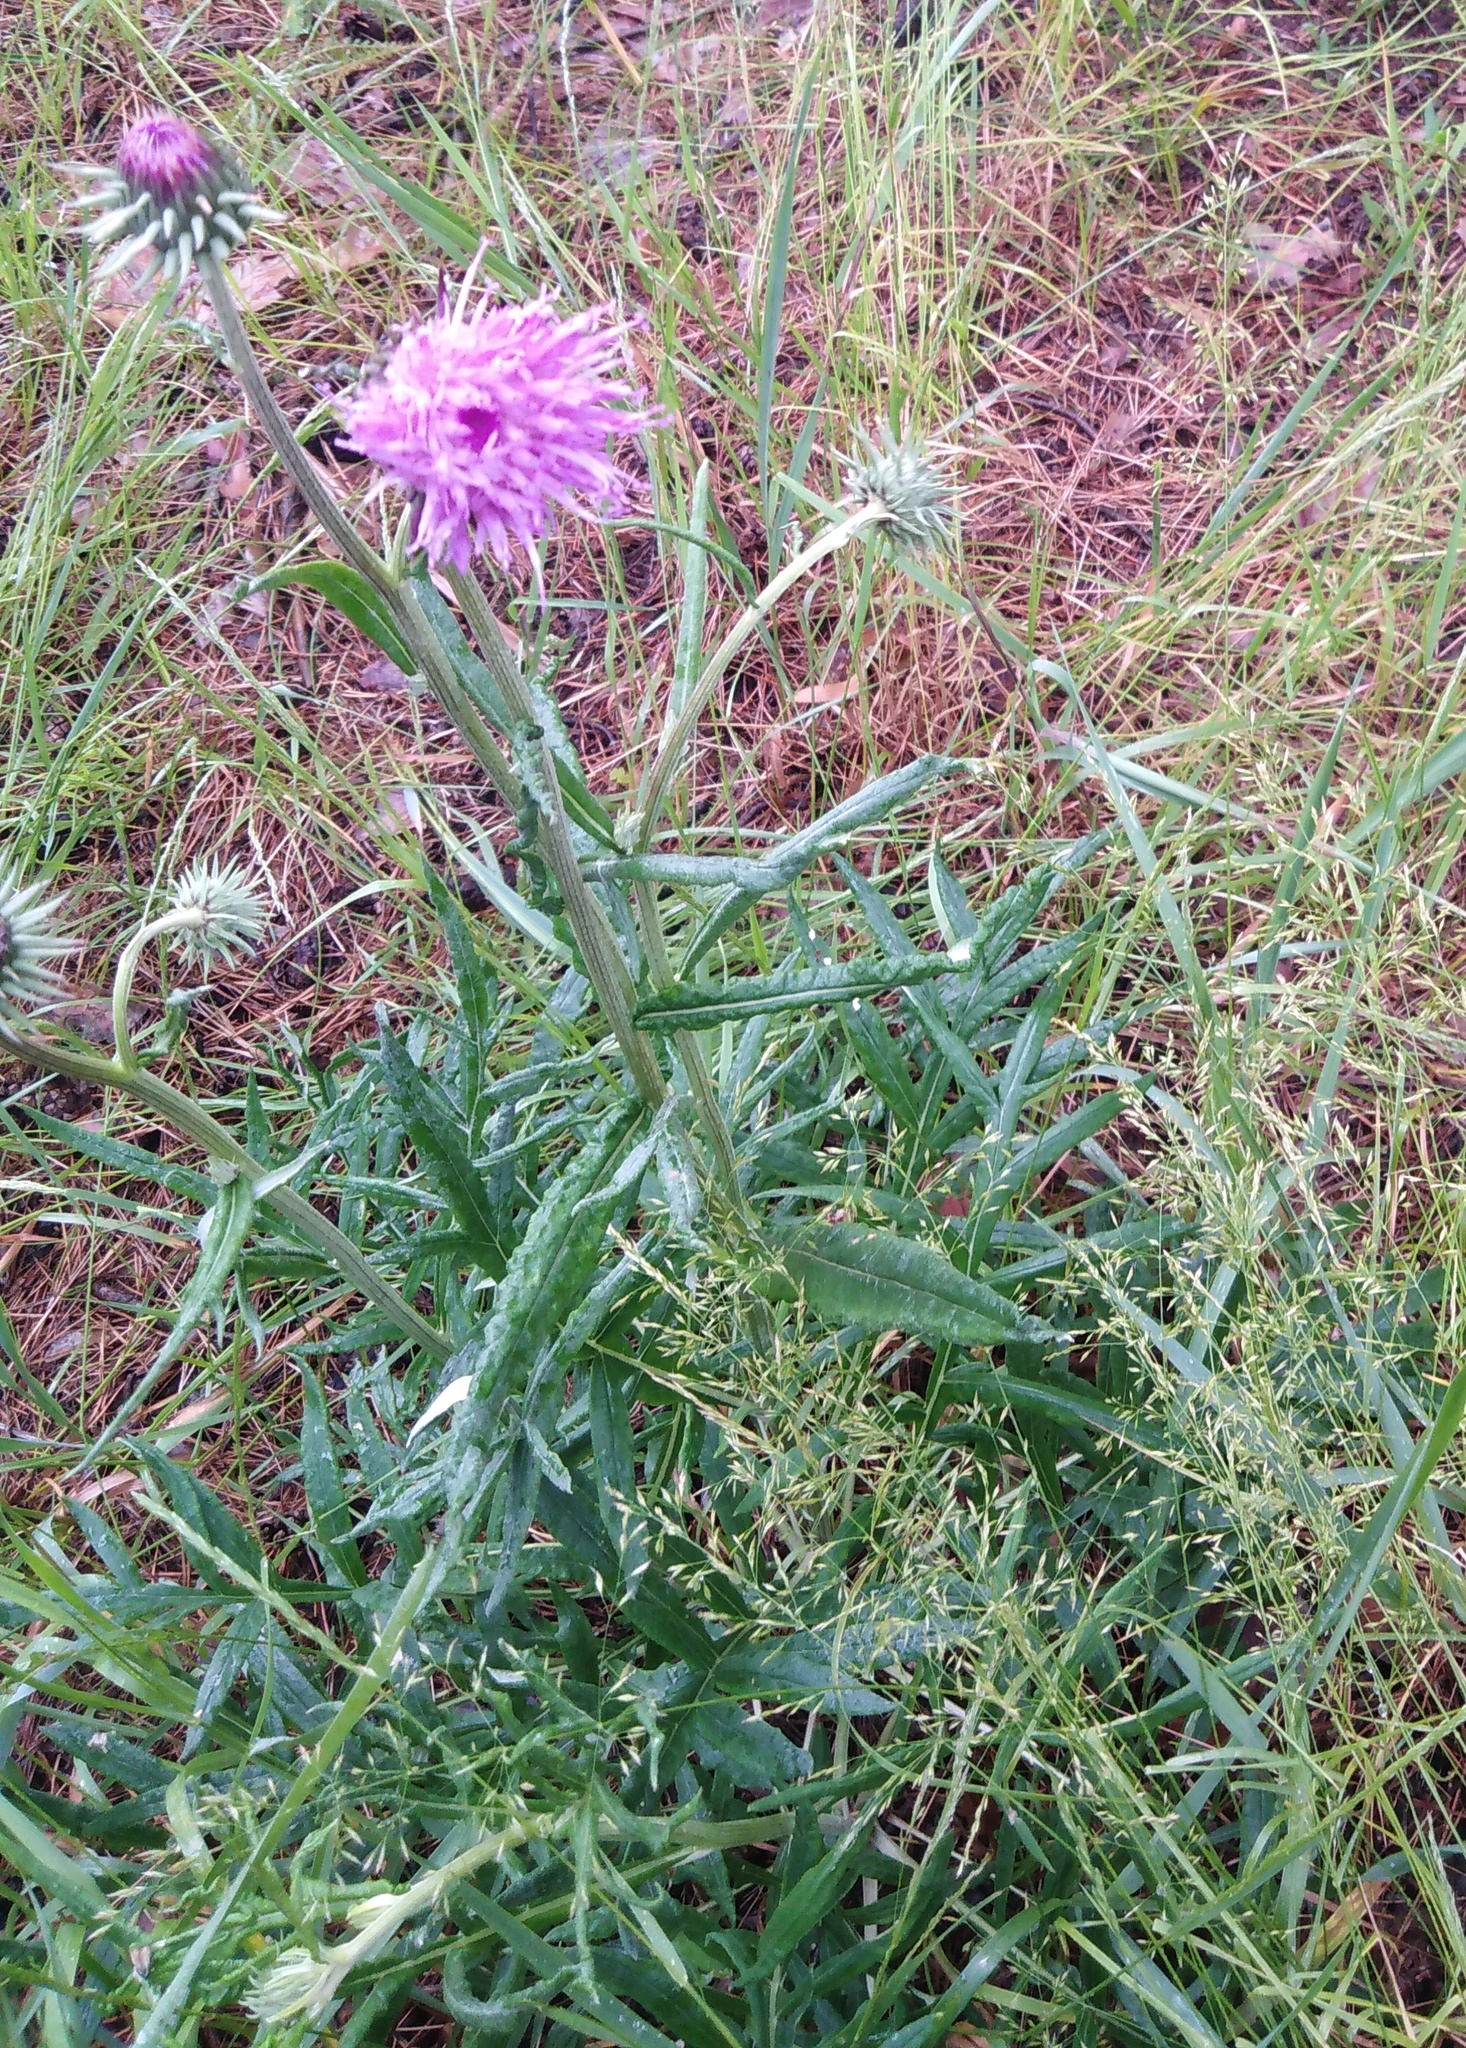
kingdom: Plantae
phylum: Tracheophyta
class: Magnoliopsida
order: Asterales
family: Asteraceae
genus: Jurinea
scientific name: Jurinea cyanoides
